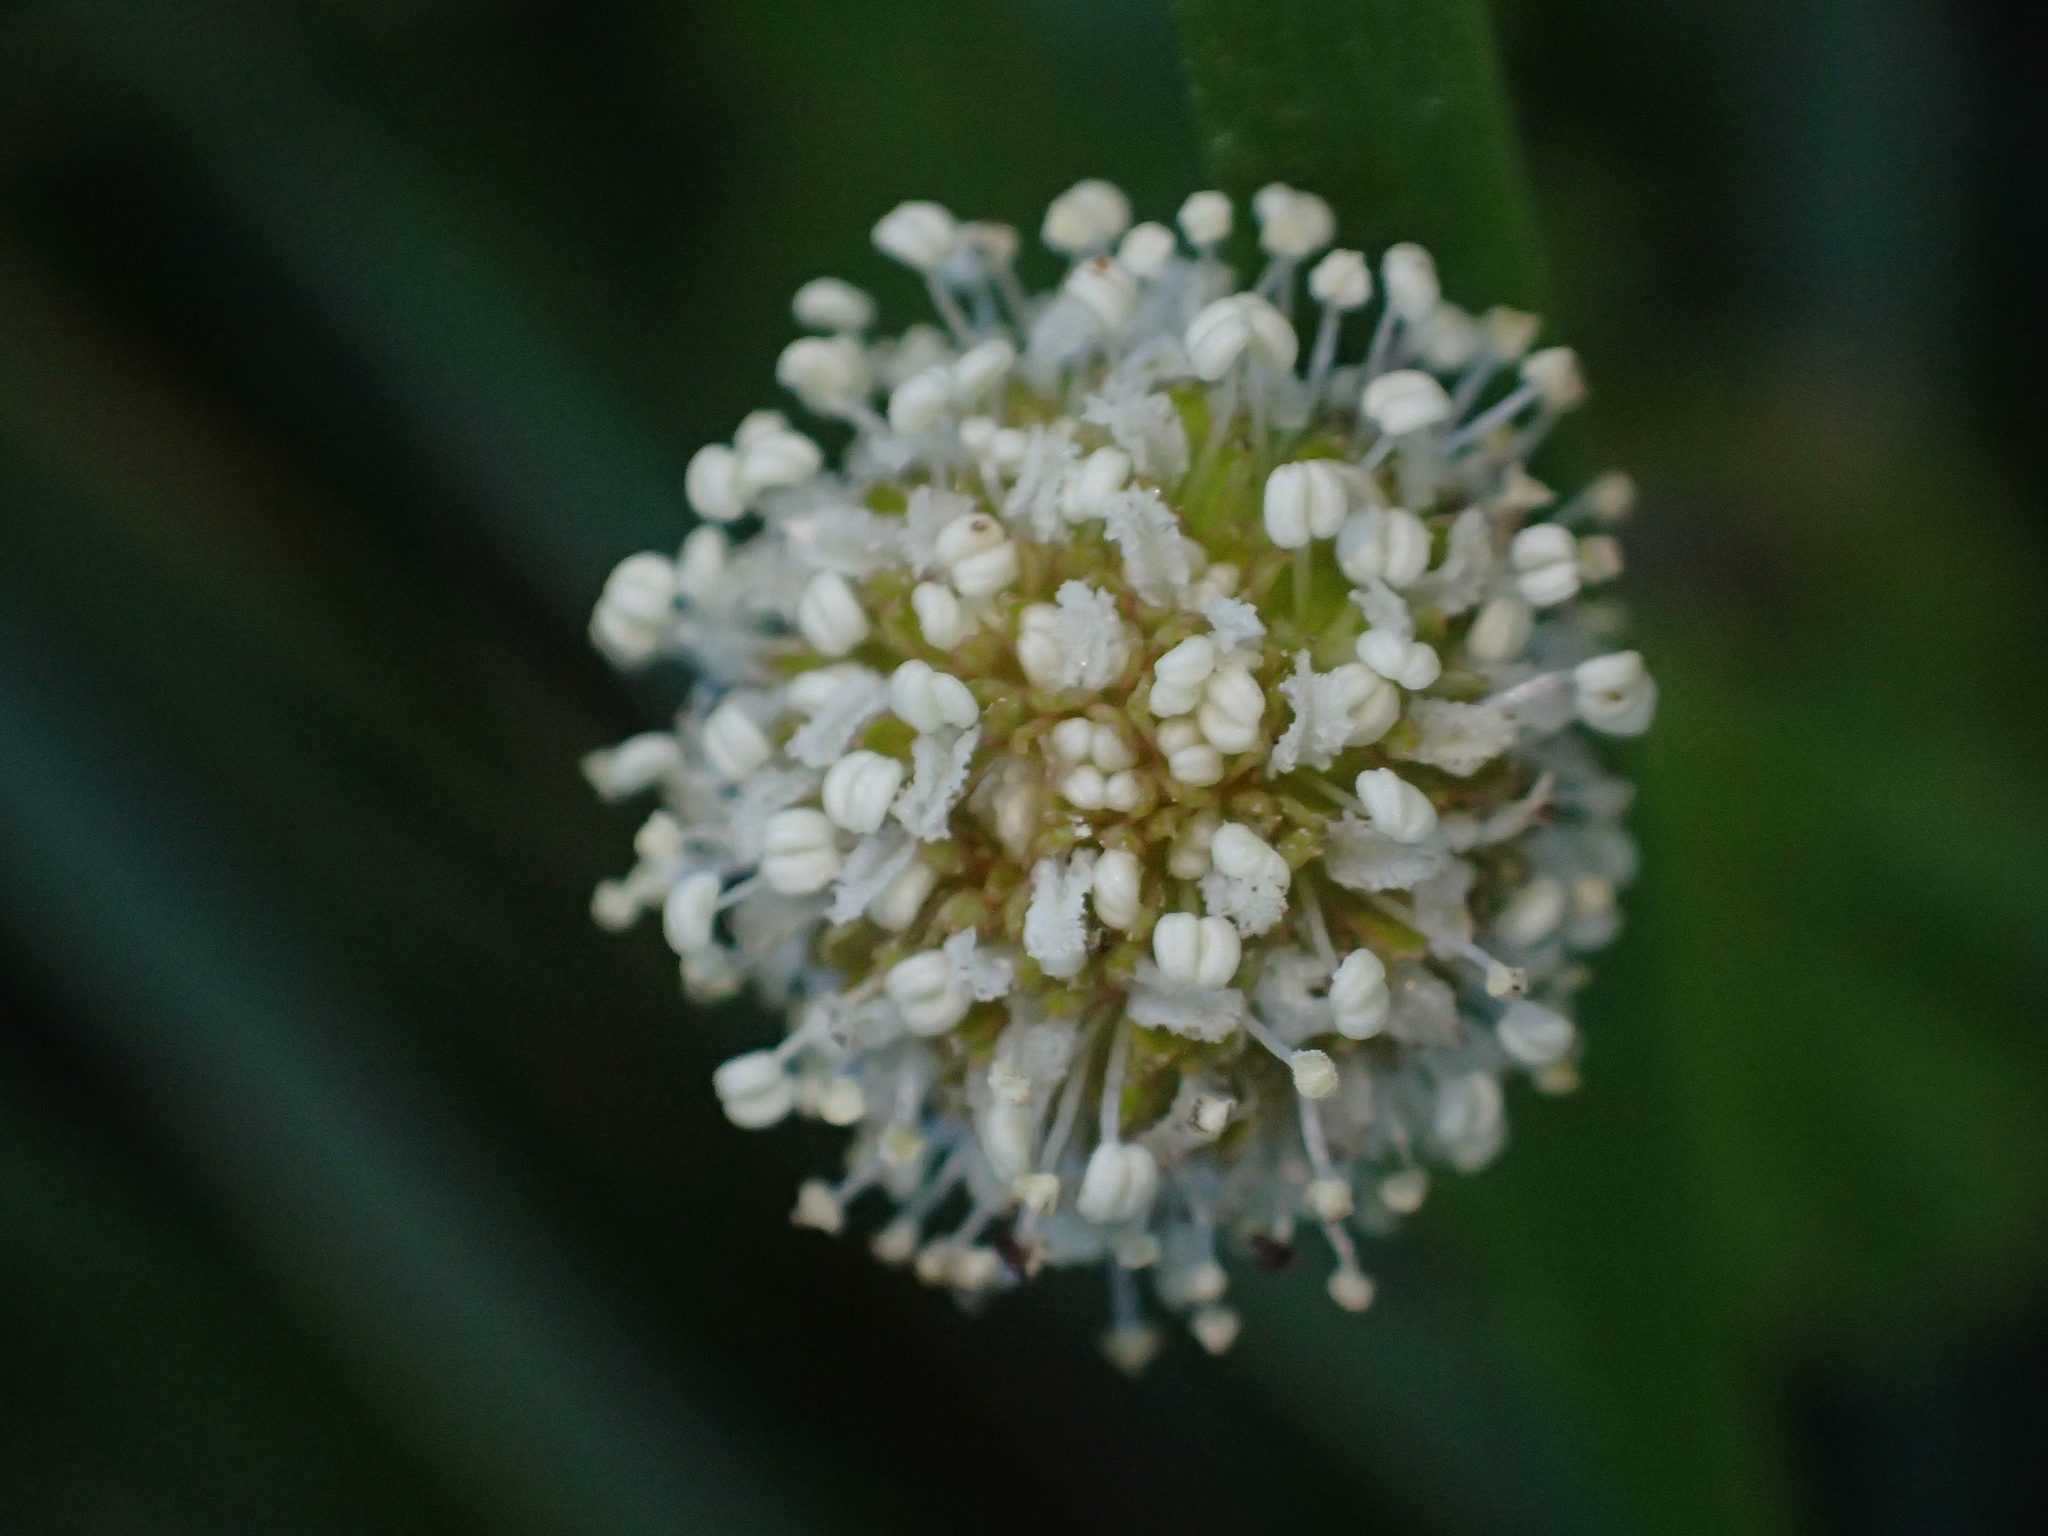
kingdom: Plantae
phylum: Tracheophyta
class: Magnoliopsida
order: Rosales
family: Rosaceae
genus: Acaena
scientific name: Acaena novae-zelandiae
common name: Pirri-pirri-bur
